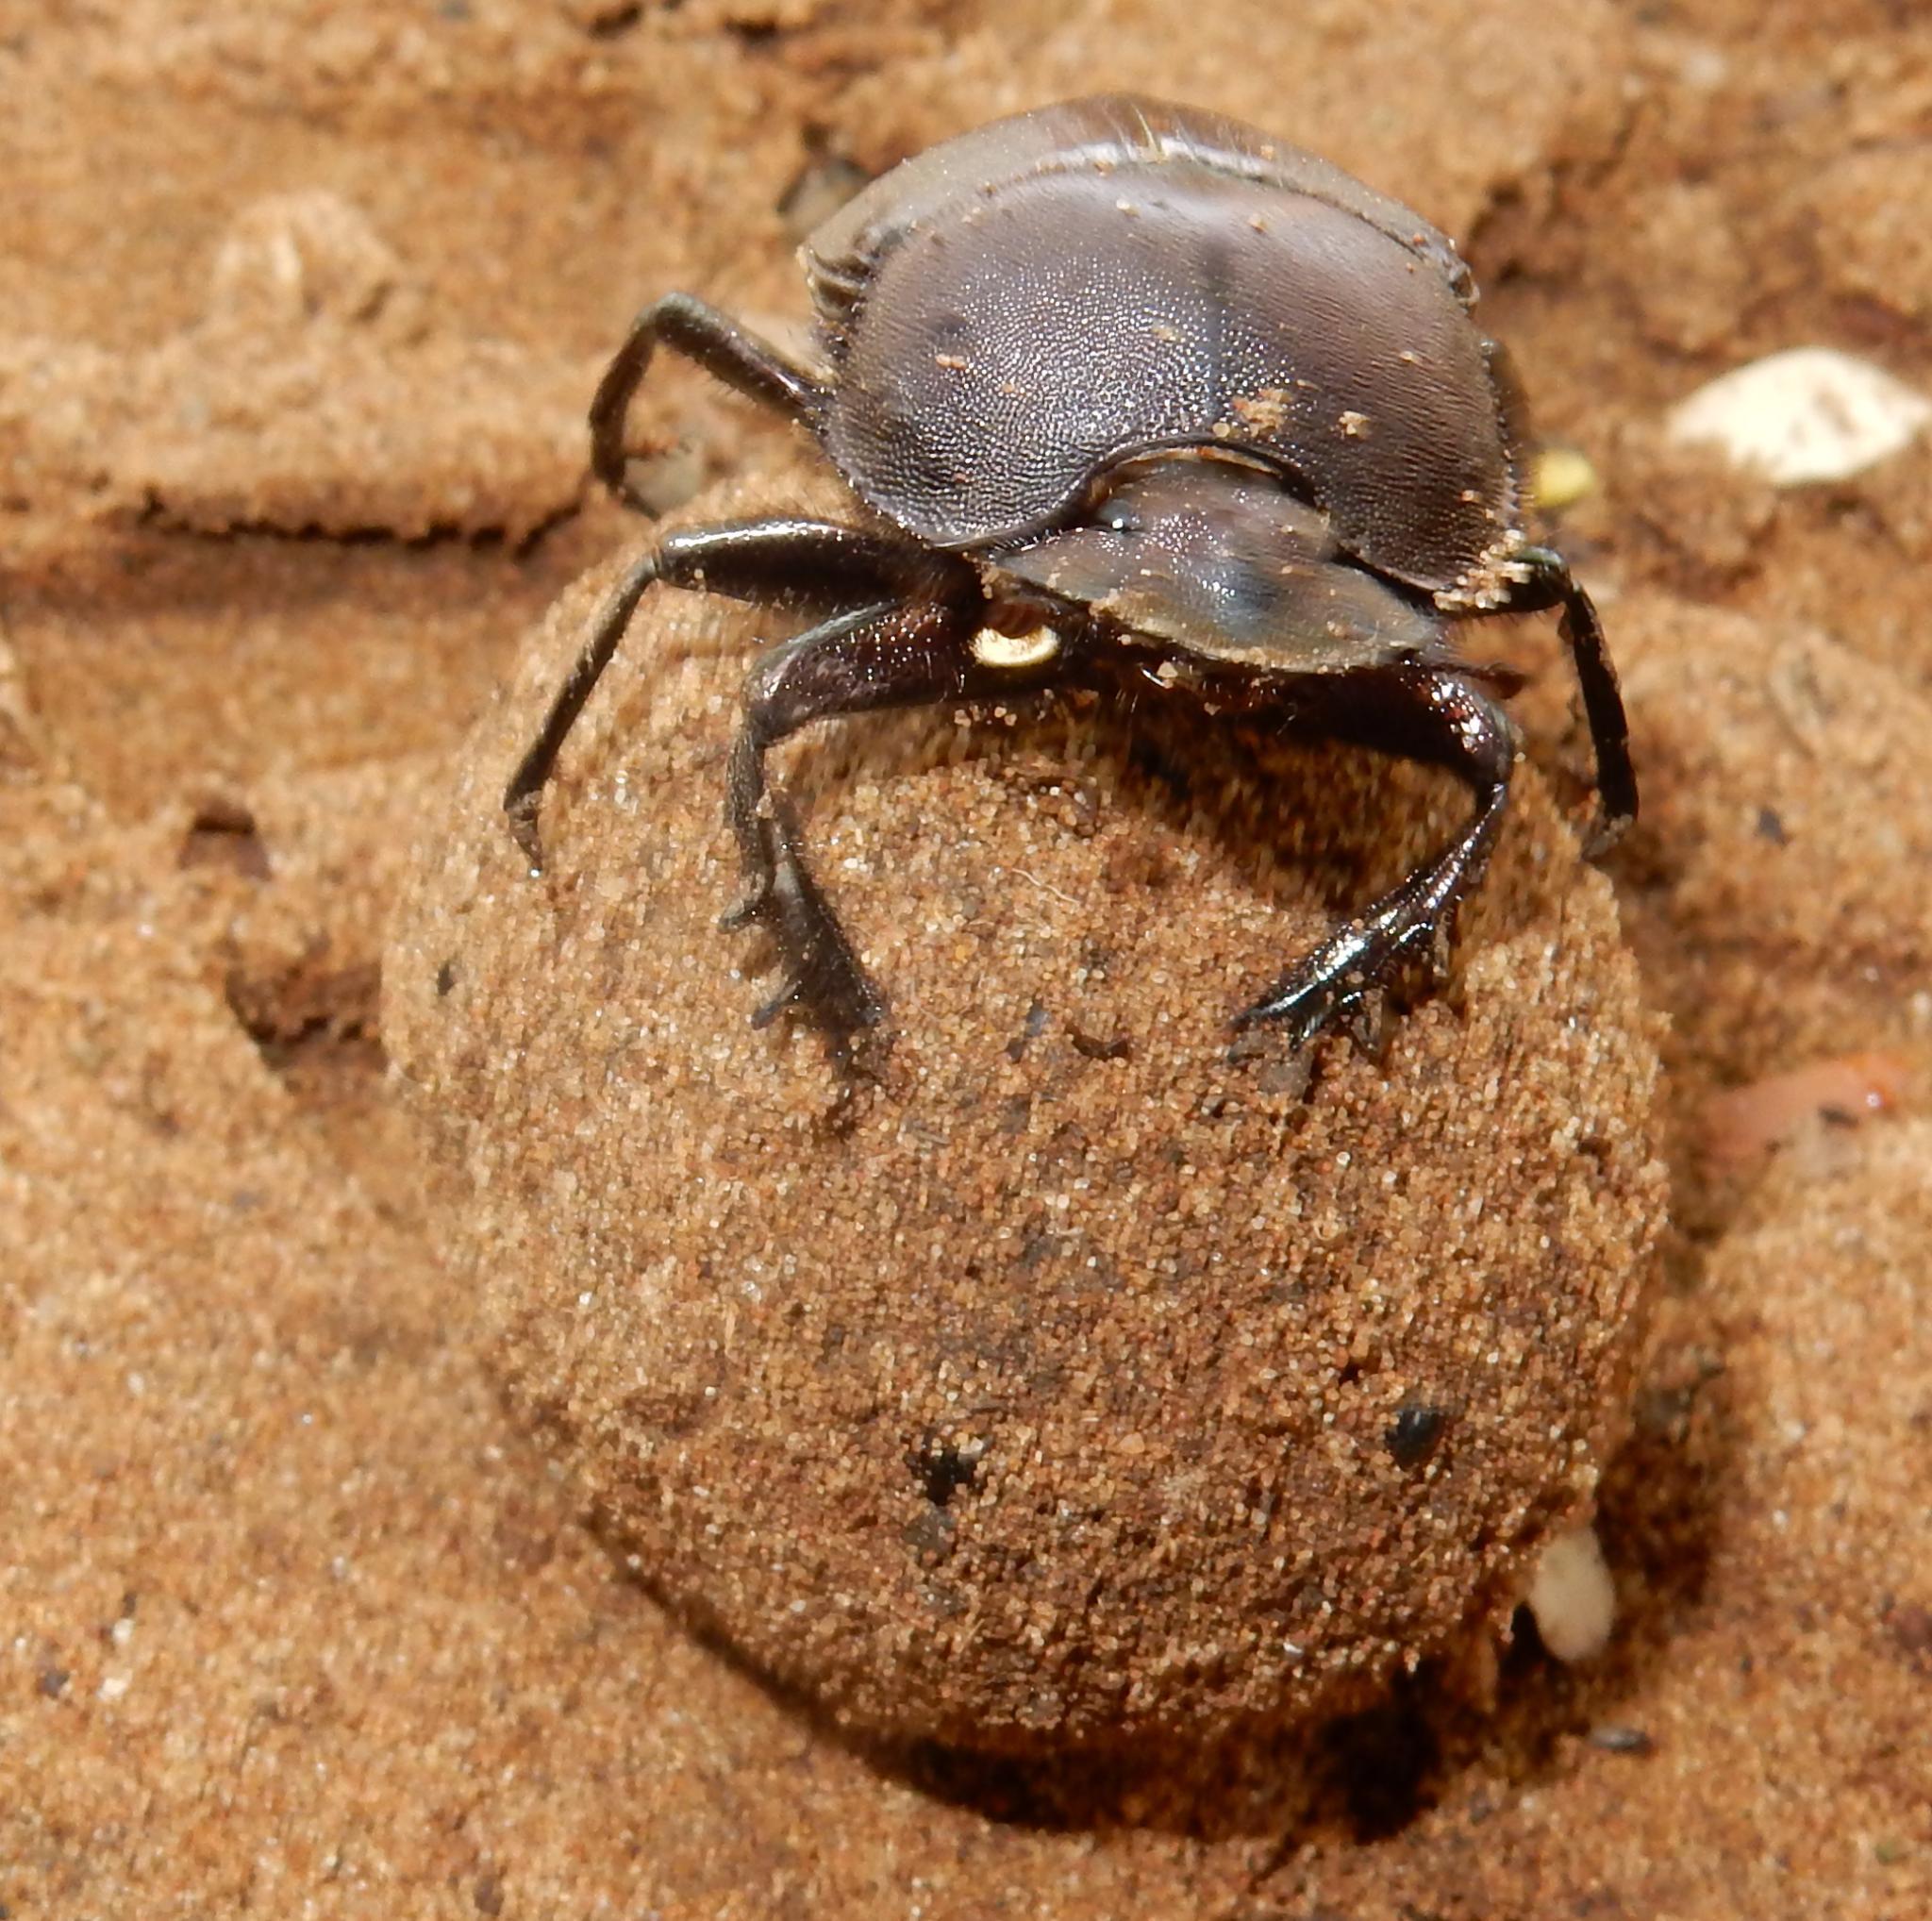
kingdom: Animalia
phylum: Arthropoda
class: Insecta
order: Coleoptera
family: Scarabaeidae
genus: Kheper
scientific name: Kheper nigroaeneus
